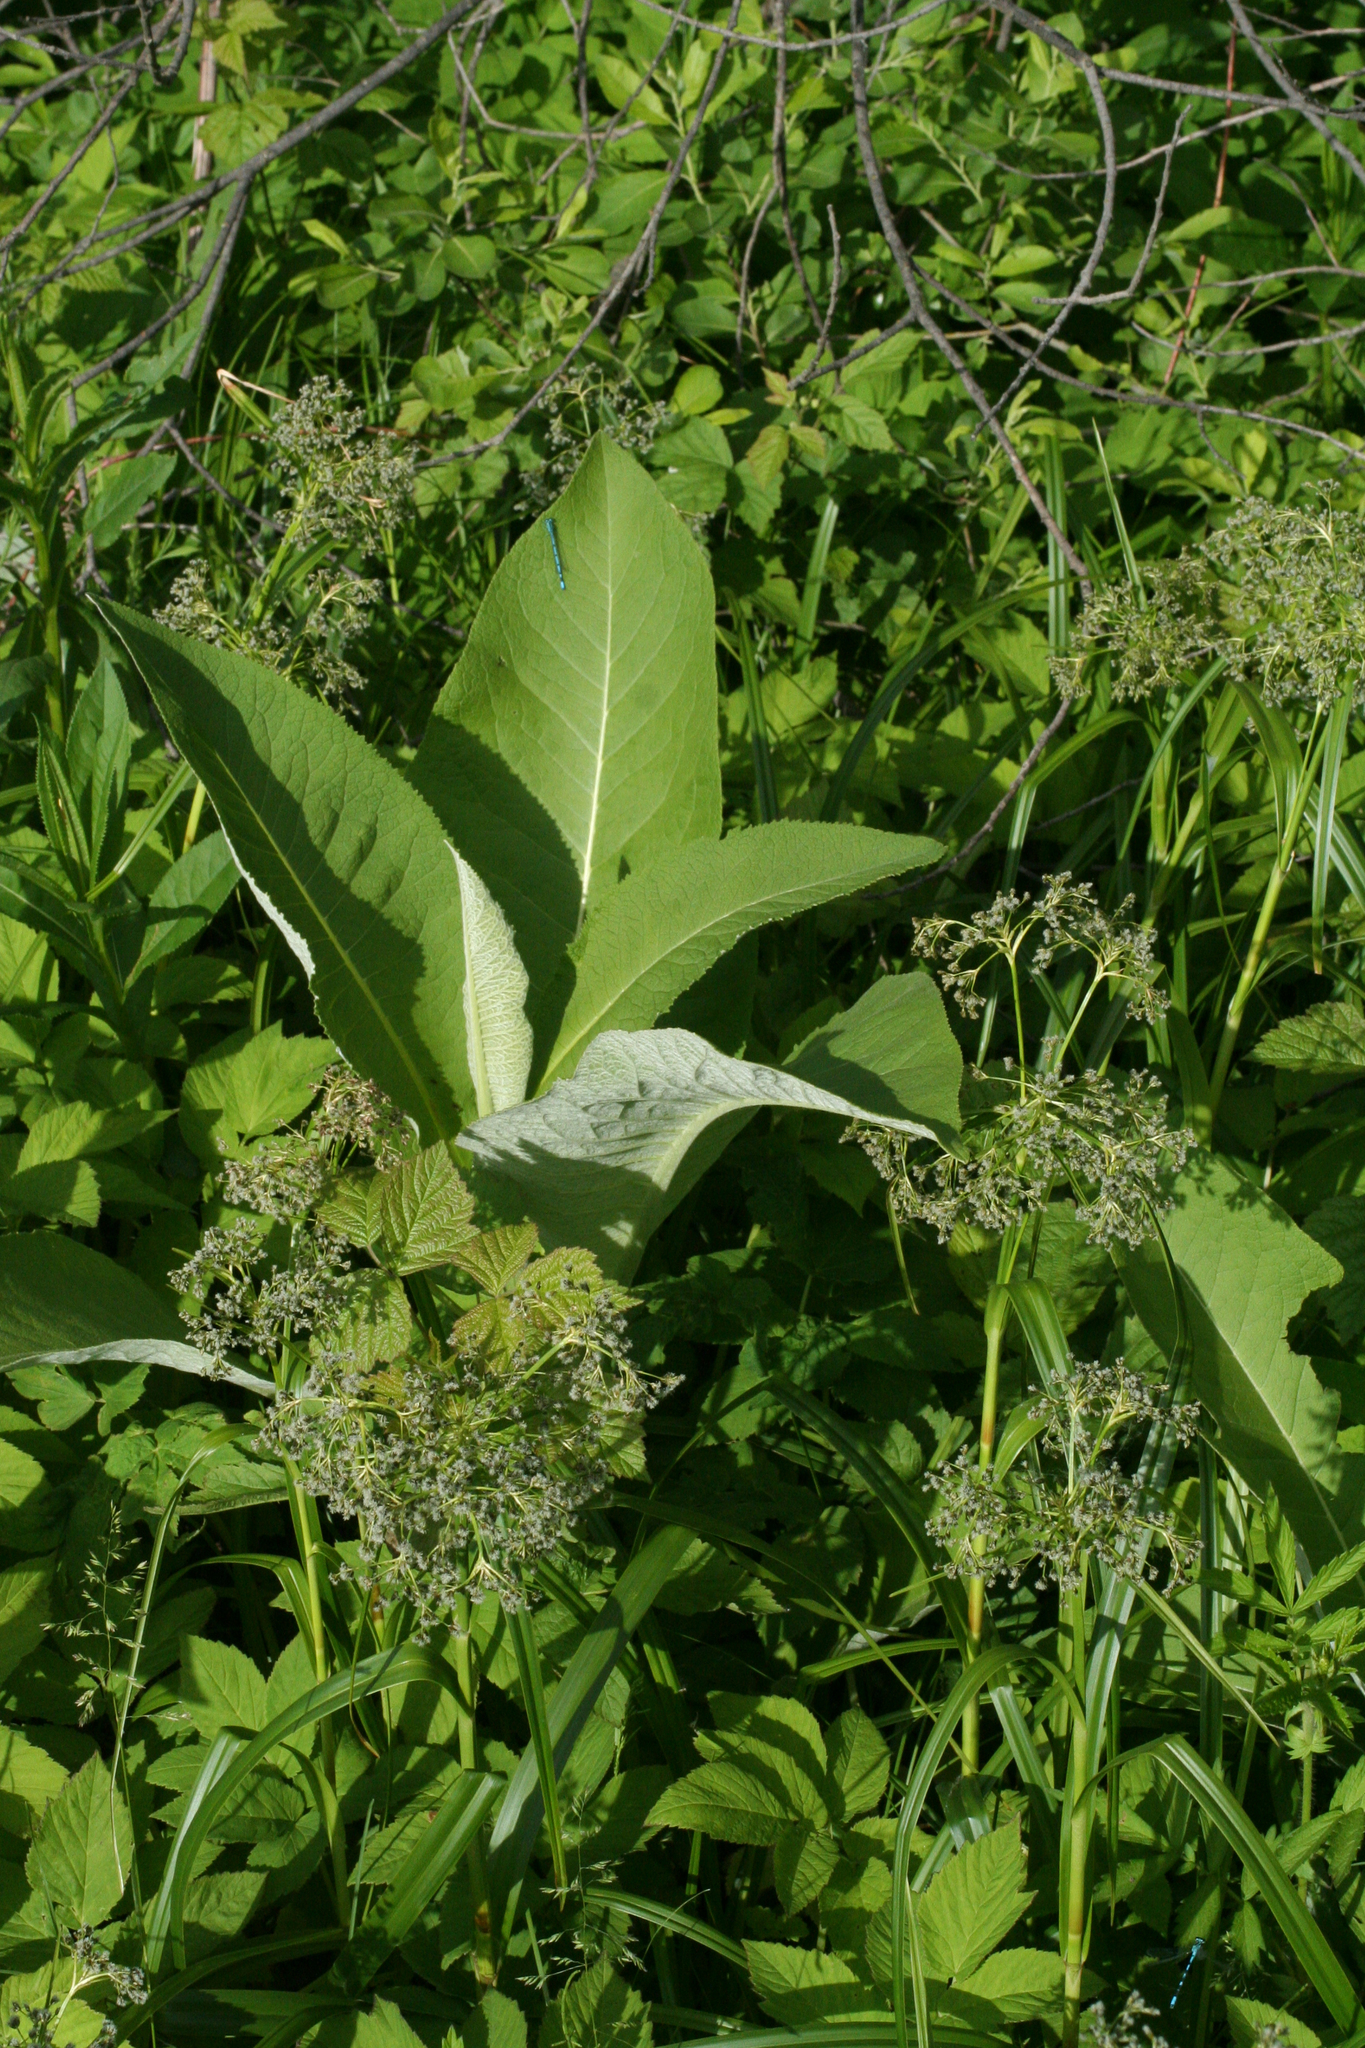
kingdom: Plantae
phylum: Tracheophyta
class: Magnoliopsida
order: Asterales
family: Asteraceae
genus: Inula
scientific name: Inula helenium
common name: Elecampane
